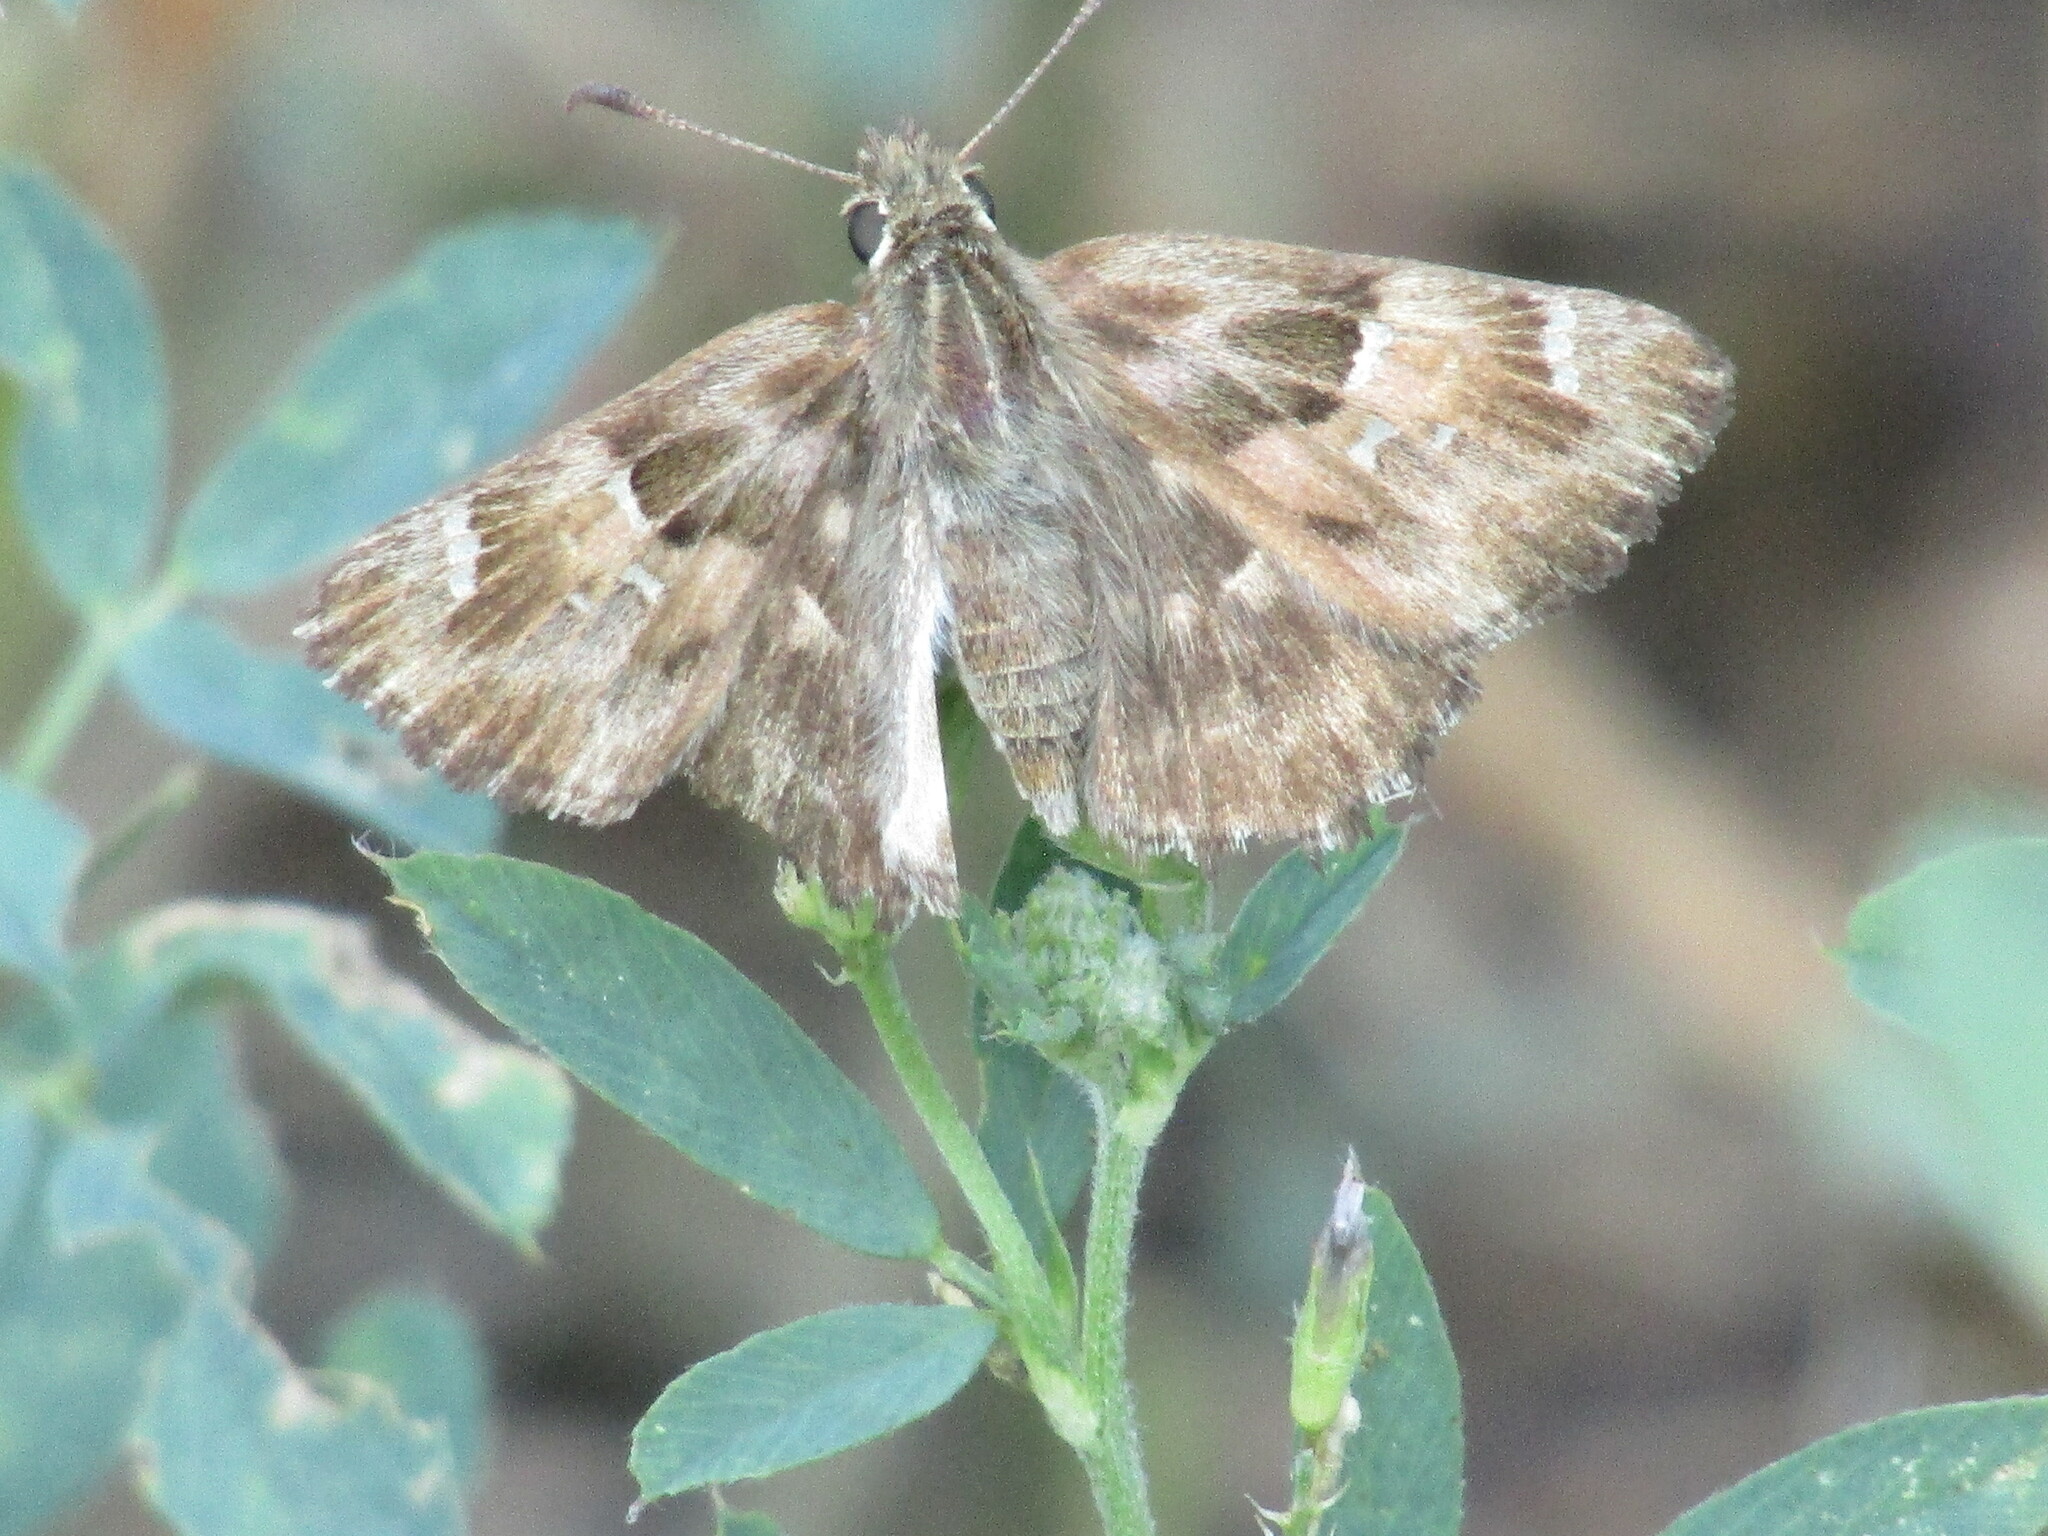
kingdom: Animalia
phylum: Arthropoda
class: Insecta
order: Lepidoptera
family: Hesperiidae
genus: Carcharodus
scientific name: Carcharodus alceae
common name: Mallow skipper
